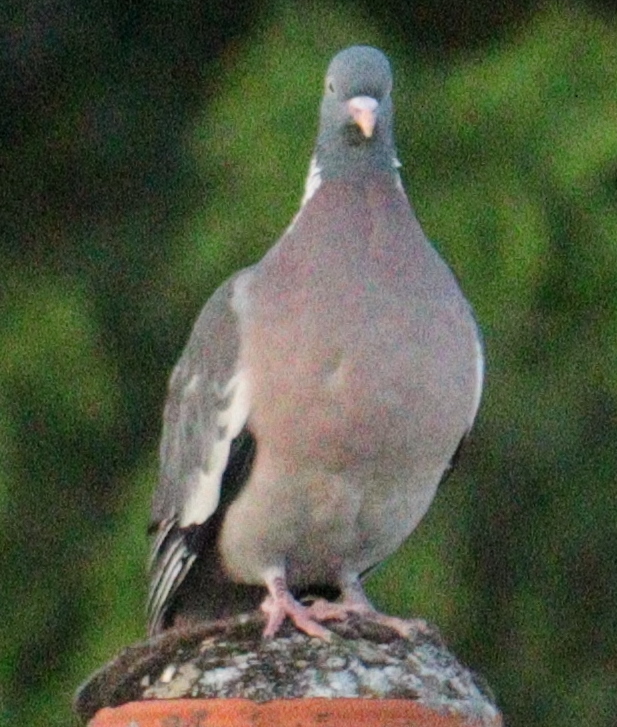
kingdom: Animalia
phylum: Chordata
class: Aves
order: Columbiformes
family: Columbidae
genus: Columba
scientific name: Columba palumbus
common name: Common wood pigeon
